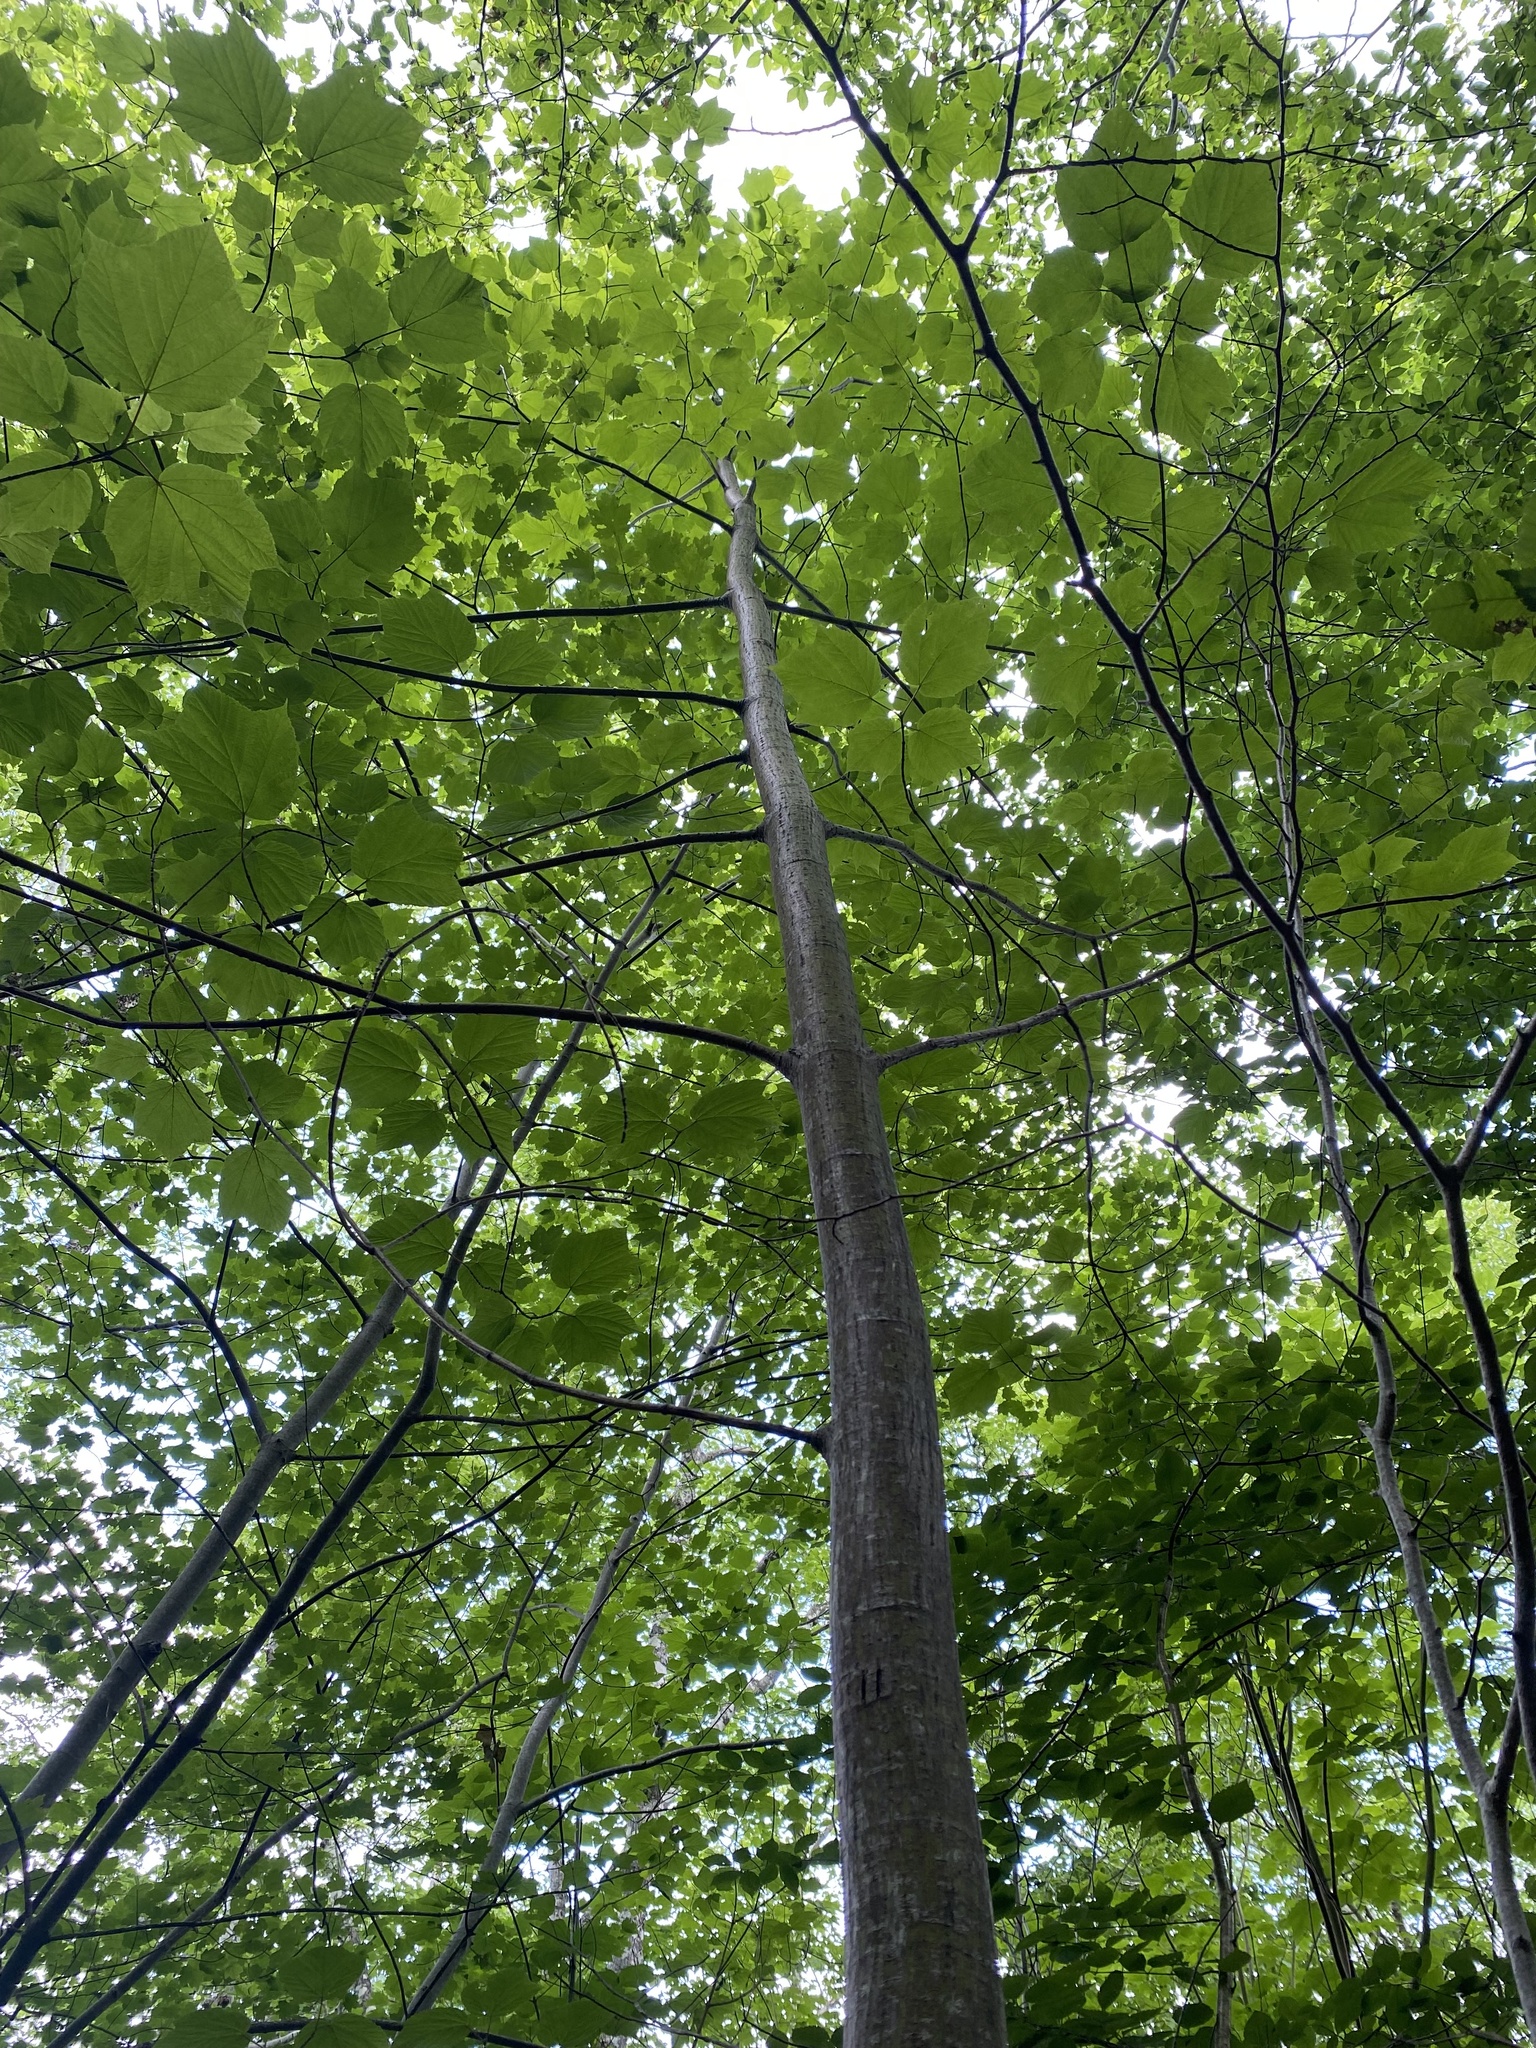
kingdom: Plantae
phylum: Tracheophyta
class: Magnoliopsida
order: Sapindales
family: Sapindaceae
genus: Acer
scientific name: Acer pensylvanicum
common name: Moosewood
